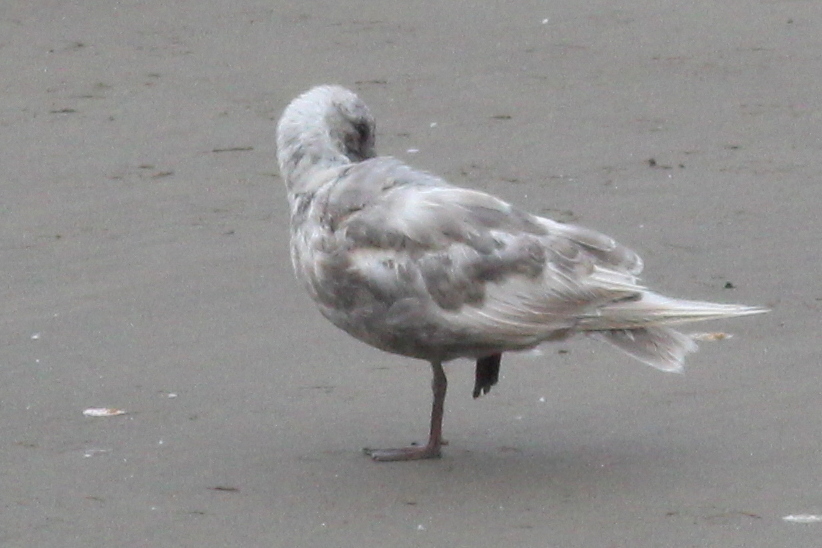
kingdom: Animalia
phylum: Chordata
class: Aves
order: Charadriiformes
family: Laridae
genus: Larus
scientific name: Larus glaucescens
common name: Glaucous-winged gull
